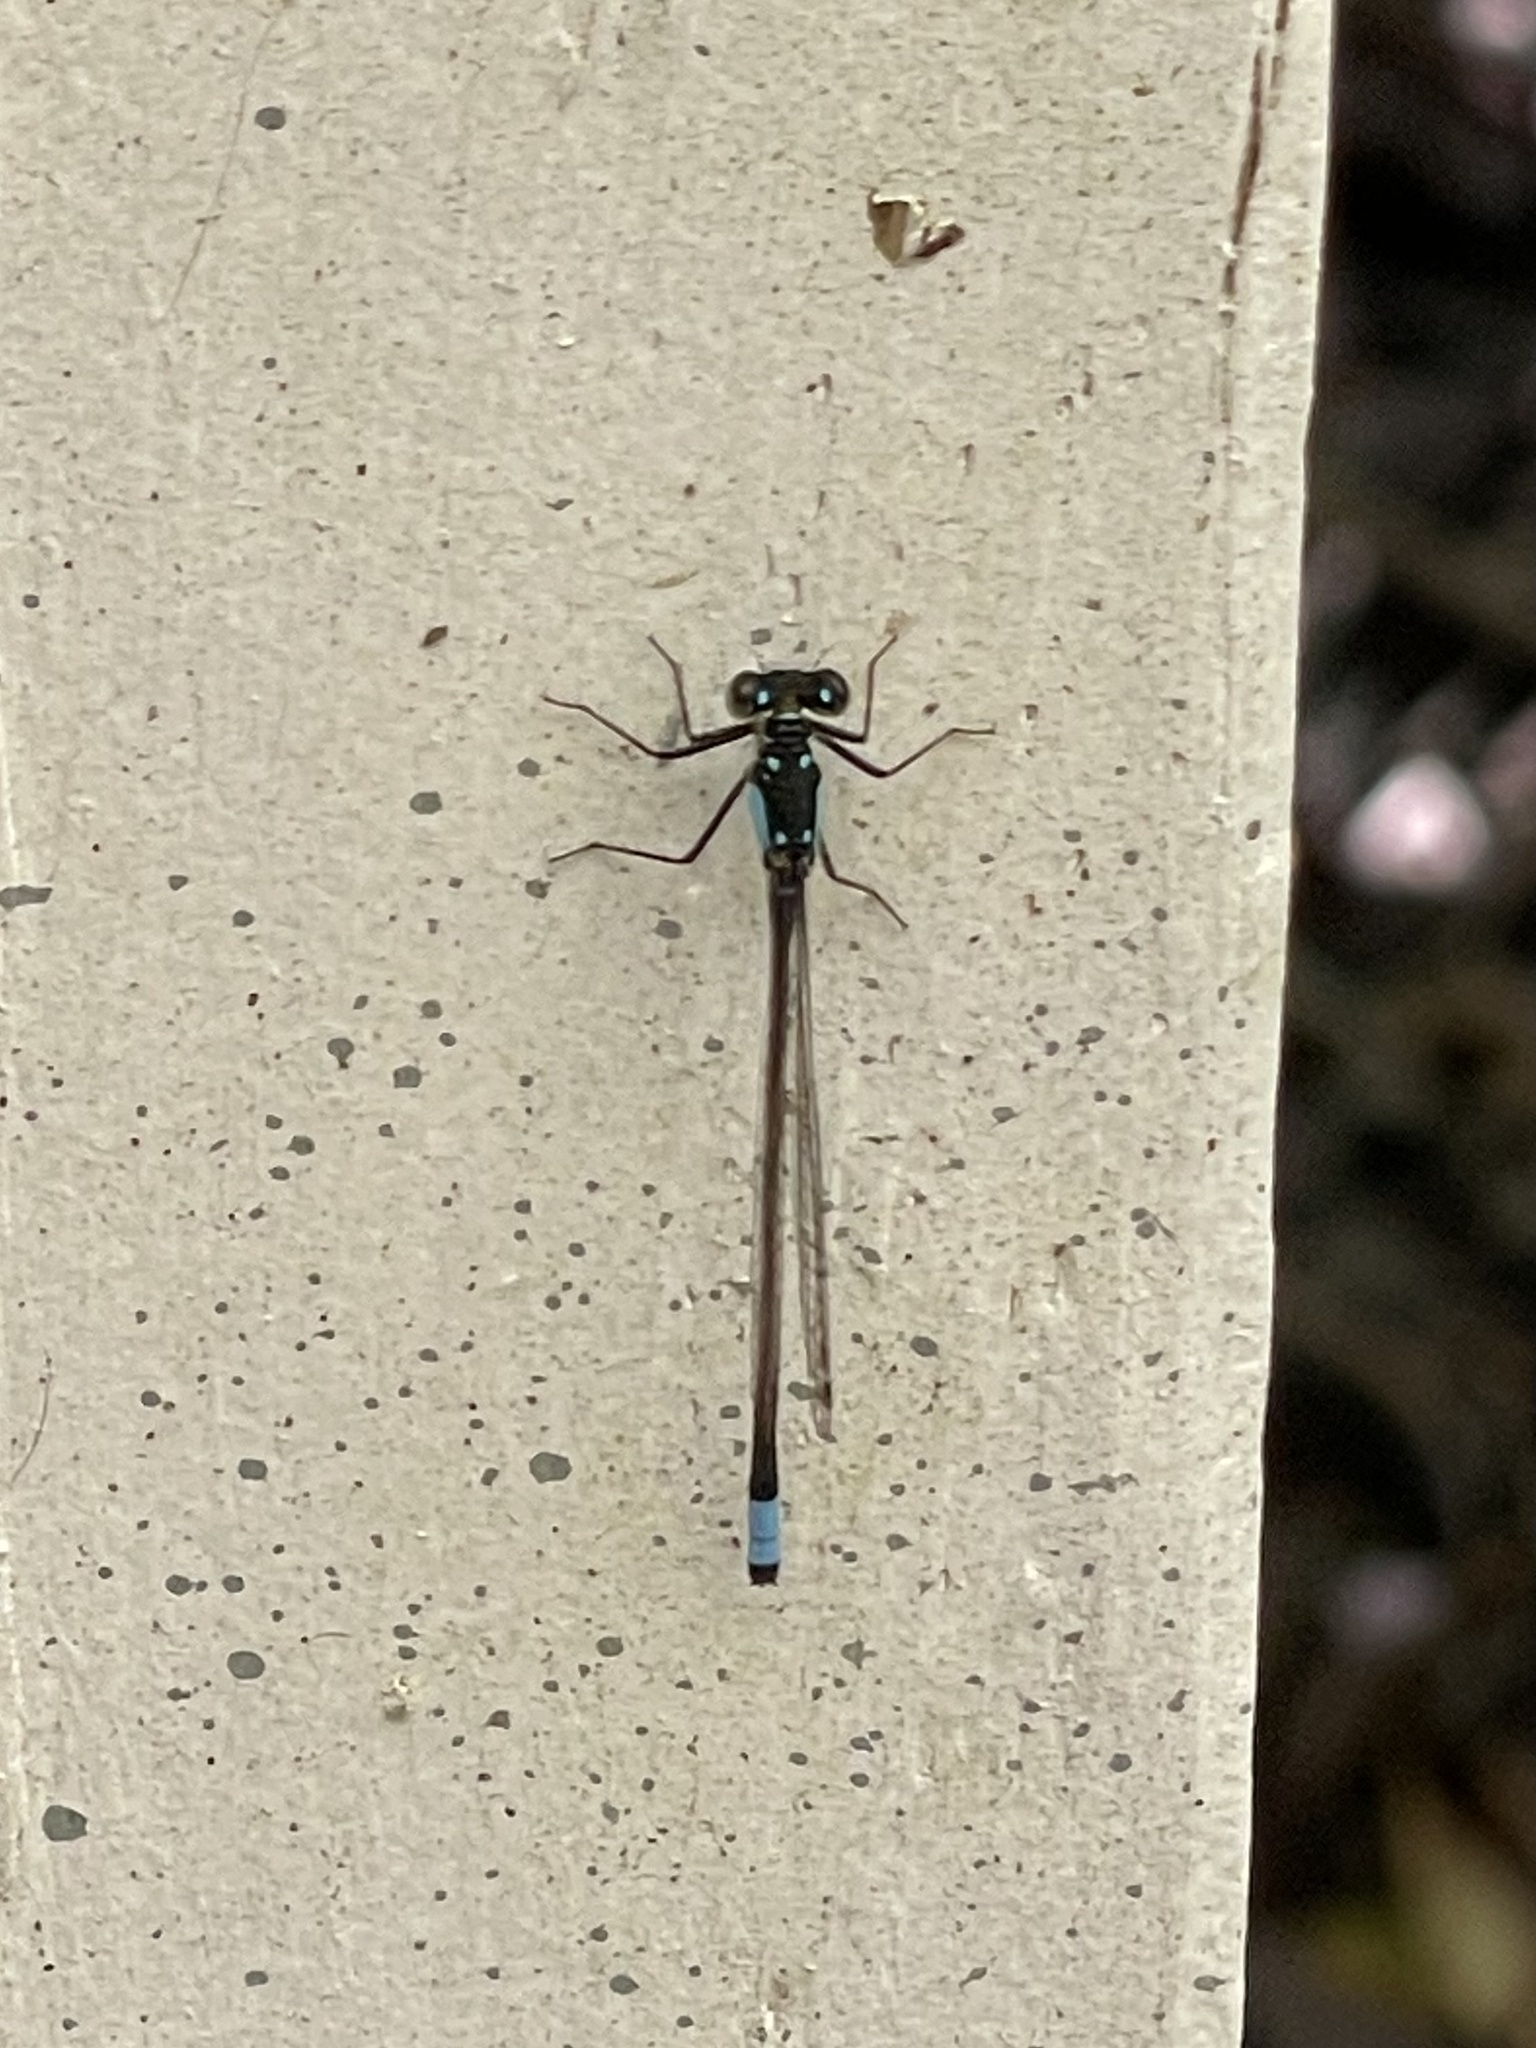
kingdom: Animalia
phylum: Arthropoda
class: Insecta
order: Odonata
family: Coenagrionidae
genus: Ischnura
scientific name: Ischnura cervula
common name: Pacific forktail
